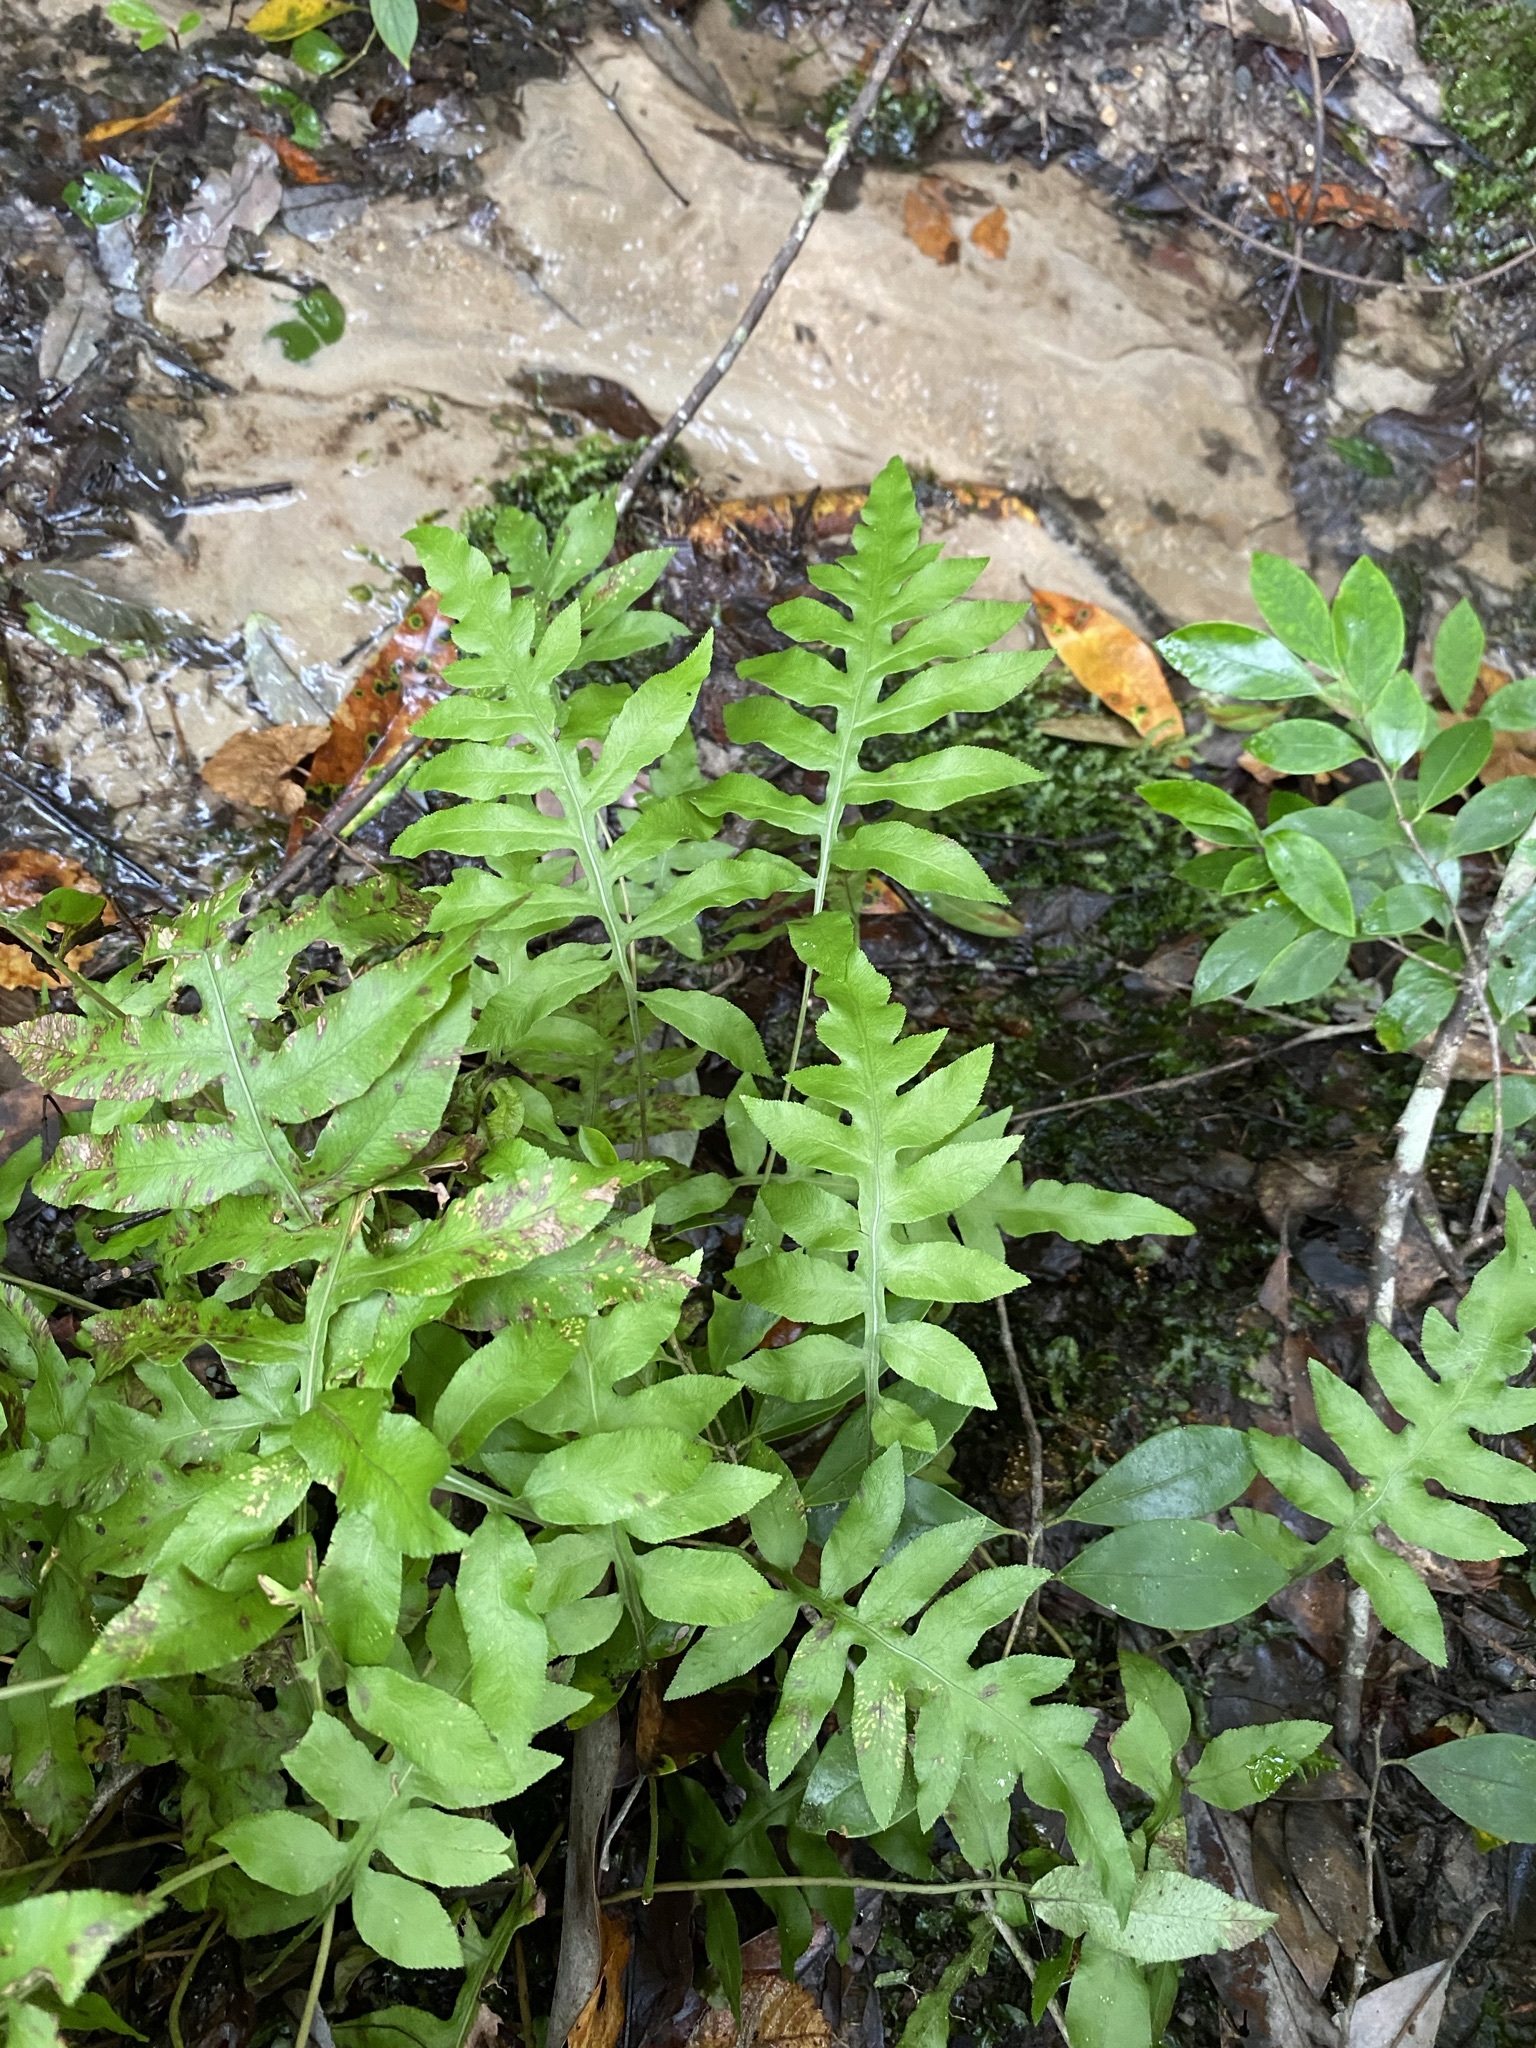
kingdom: Plantae
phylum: Tracheophyta
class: Polypodiopsida
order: Polypodiales
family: Blechnaceae
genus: Lorinseria
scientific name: Lorinseria areolata
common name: Dwarf chain fern
